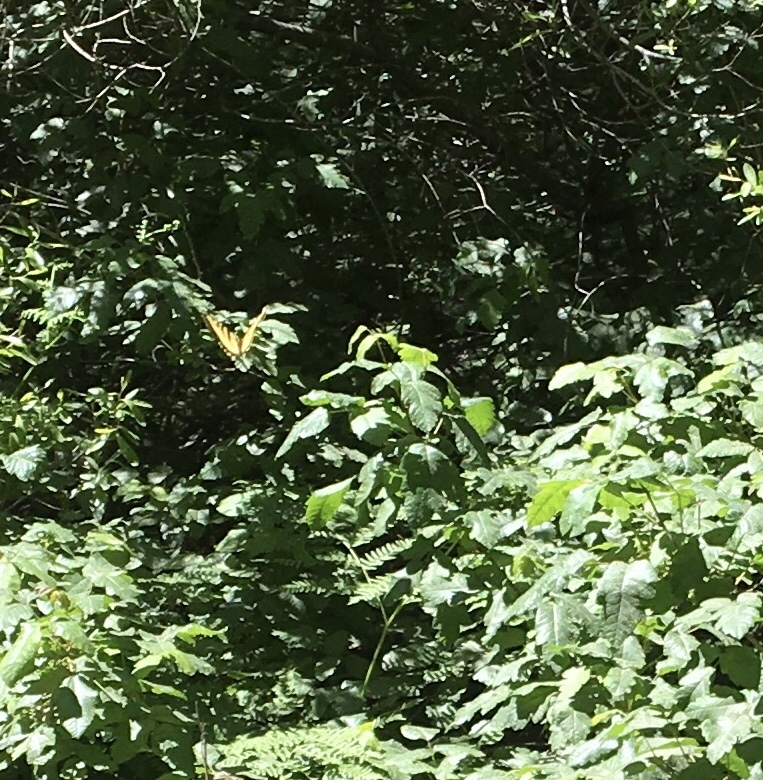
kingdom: Animalia
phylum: Arthropoda
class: Insecta
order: Lepidoptera
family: Papilionidae
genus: Papilio
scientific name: Papilio rutulus
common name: Western tiger swallowtail
